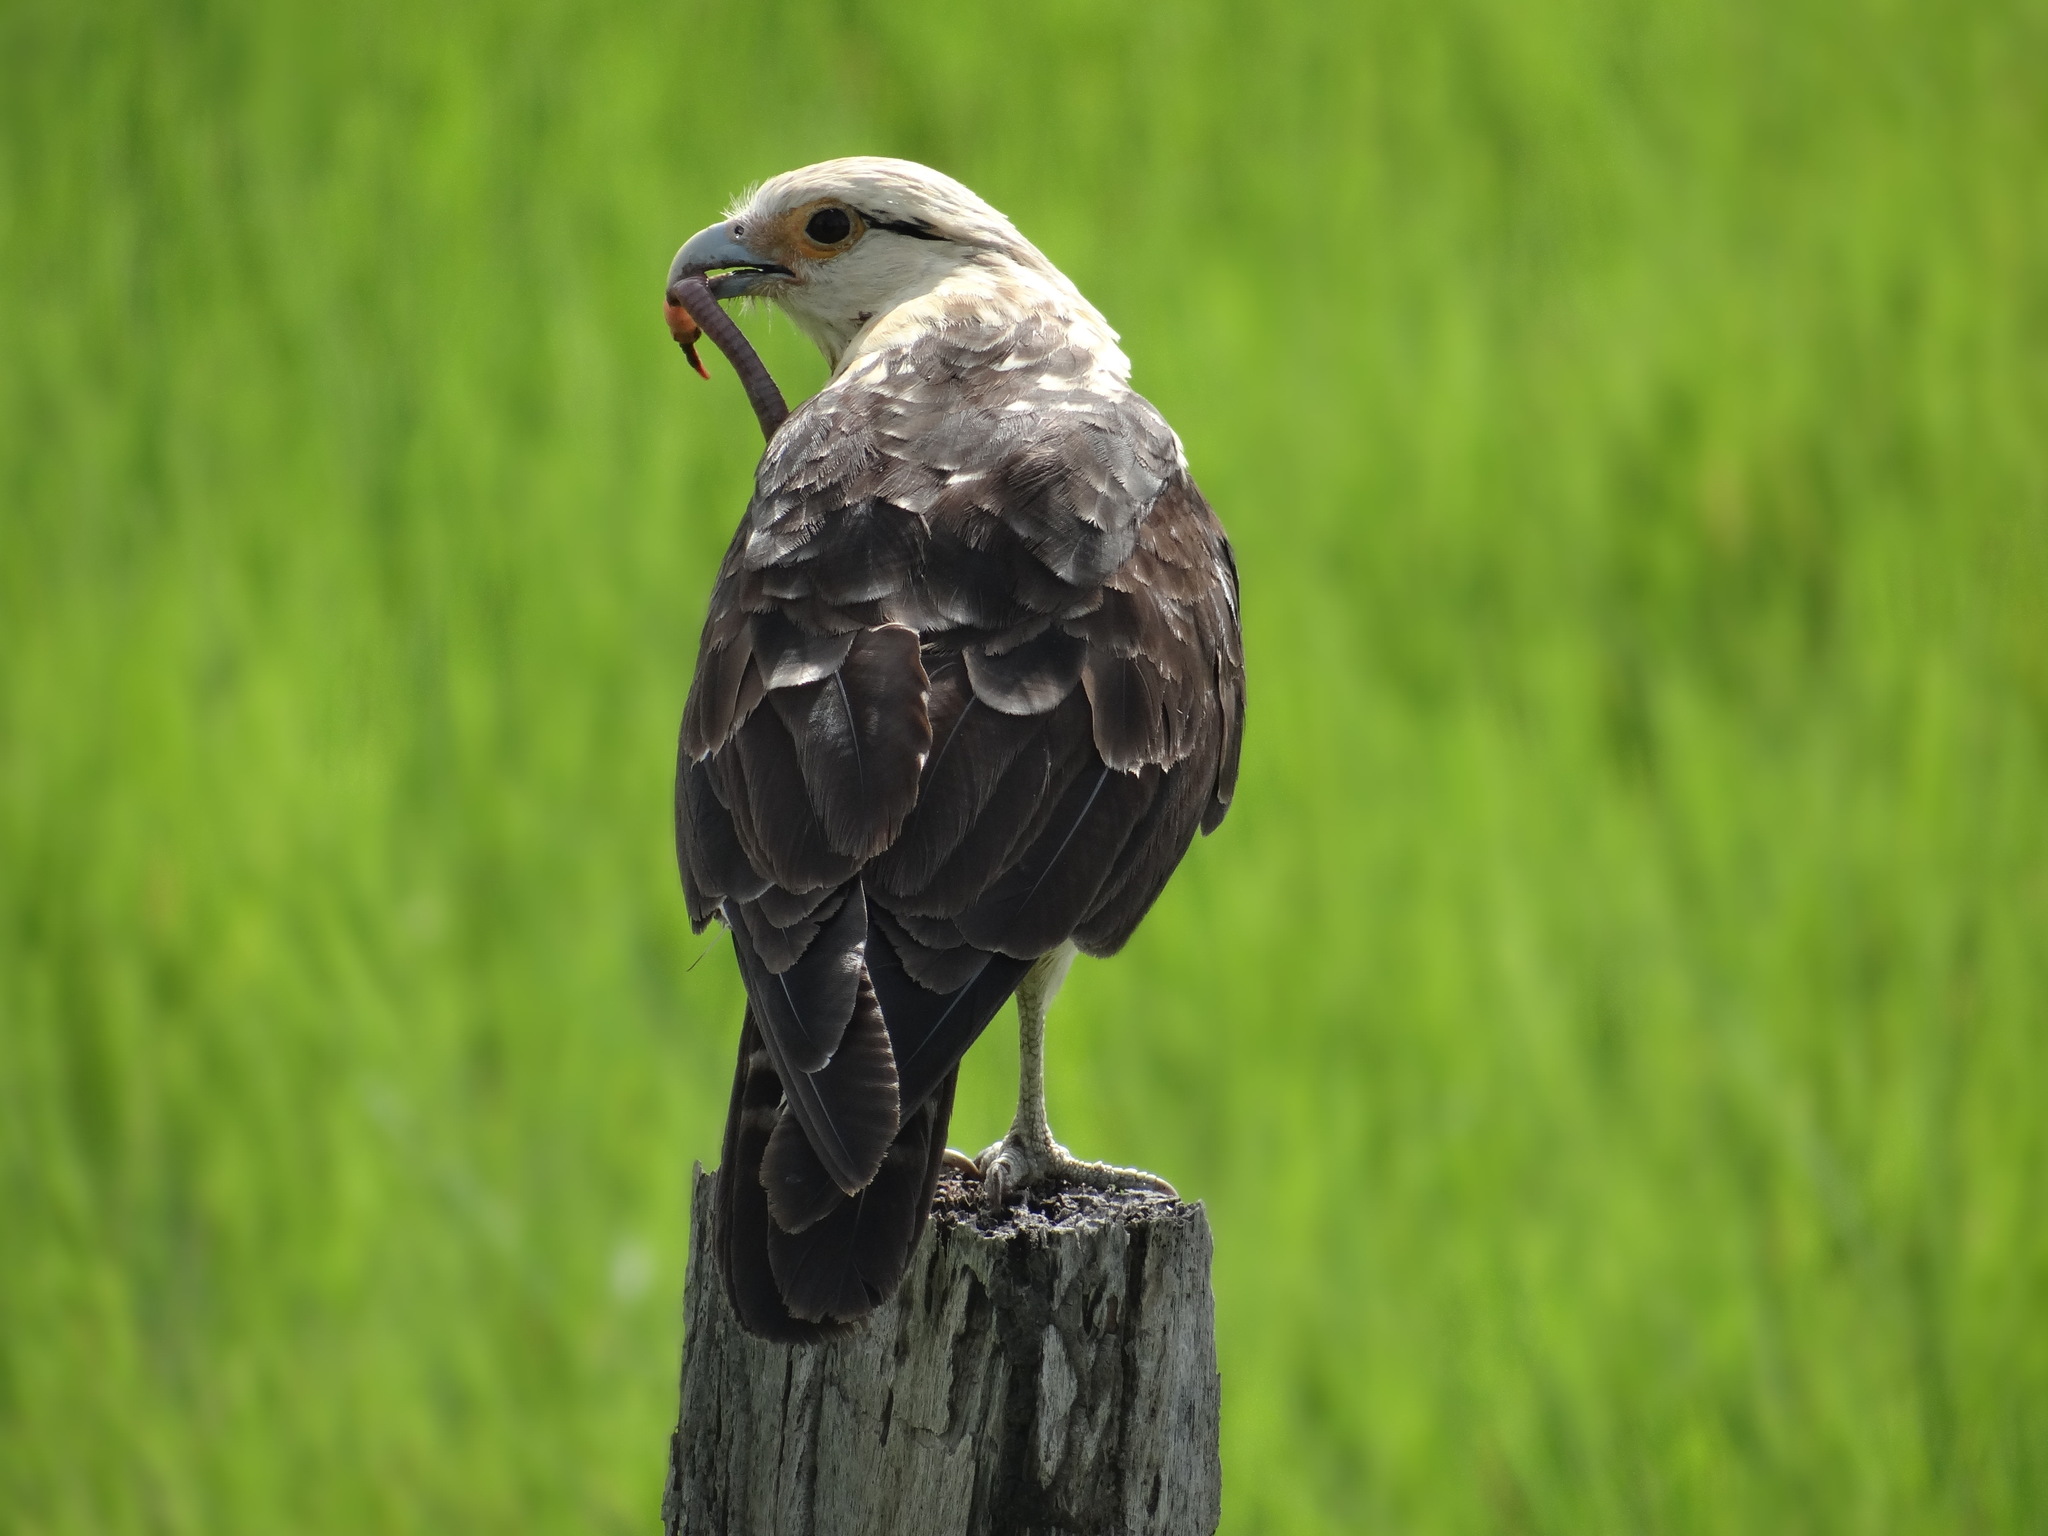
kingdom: Animalia
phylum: Chordata
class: Aves
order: Falconiformes
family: Falconidae
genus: Daptrius
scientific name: Daptrius
